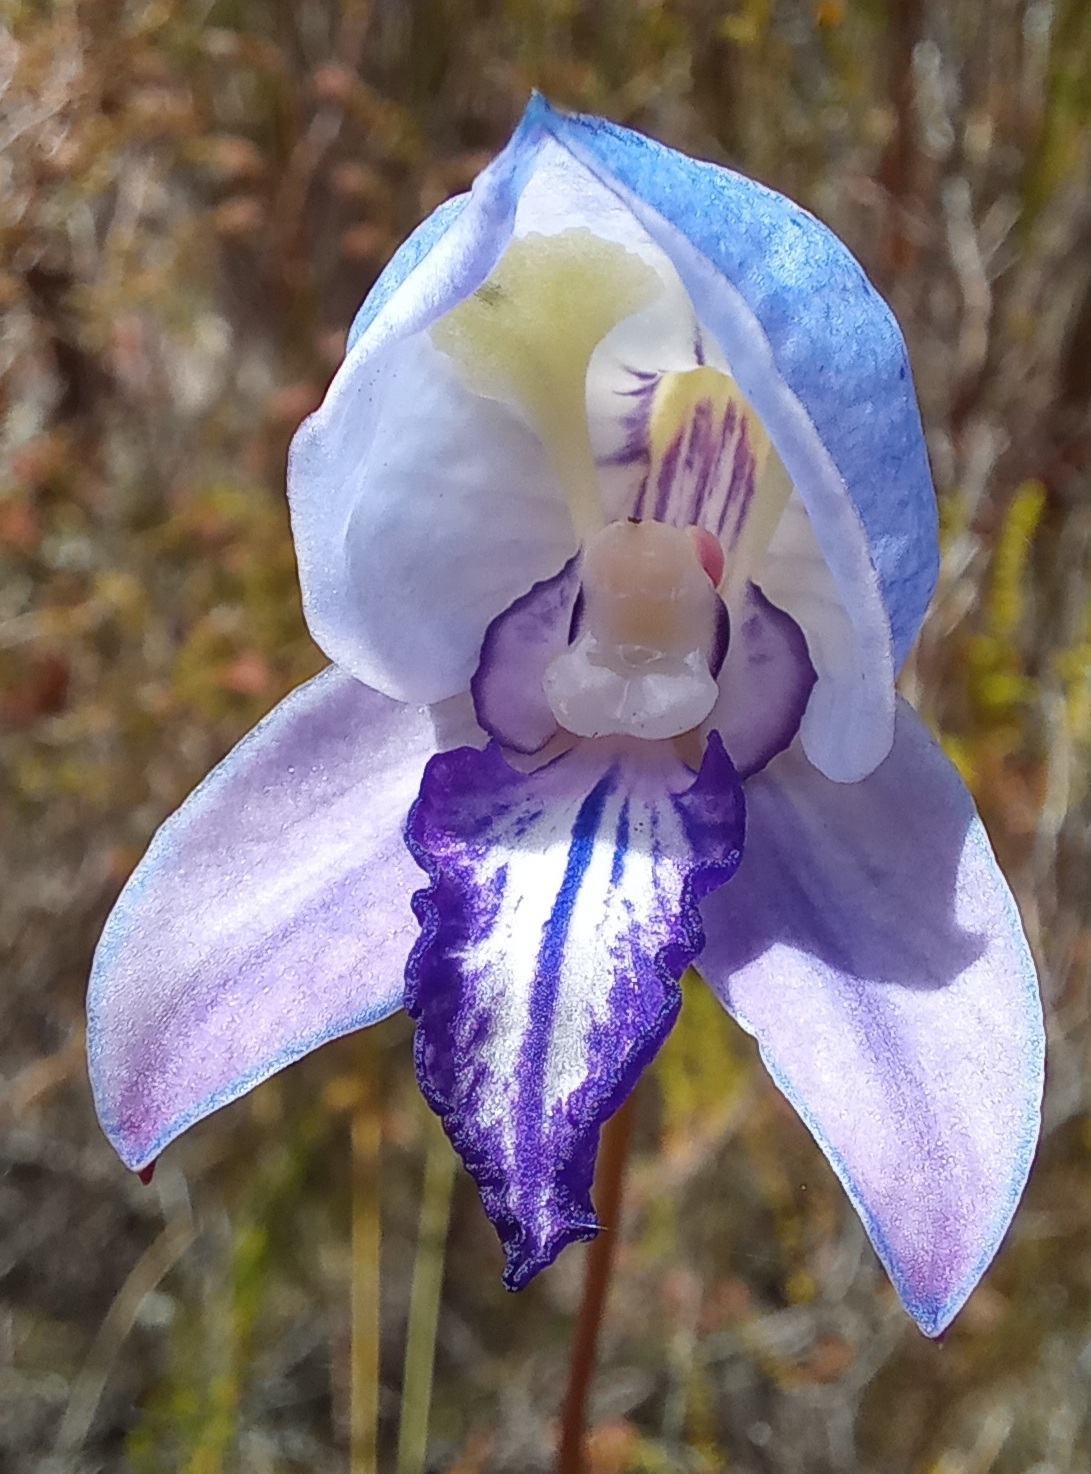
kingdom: Plantae
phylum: Tracheophyta
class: Liliopsida
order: Asparagales
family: Orchidaceae
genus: Disa
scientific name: Disa purpurascens
